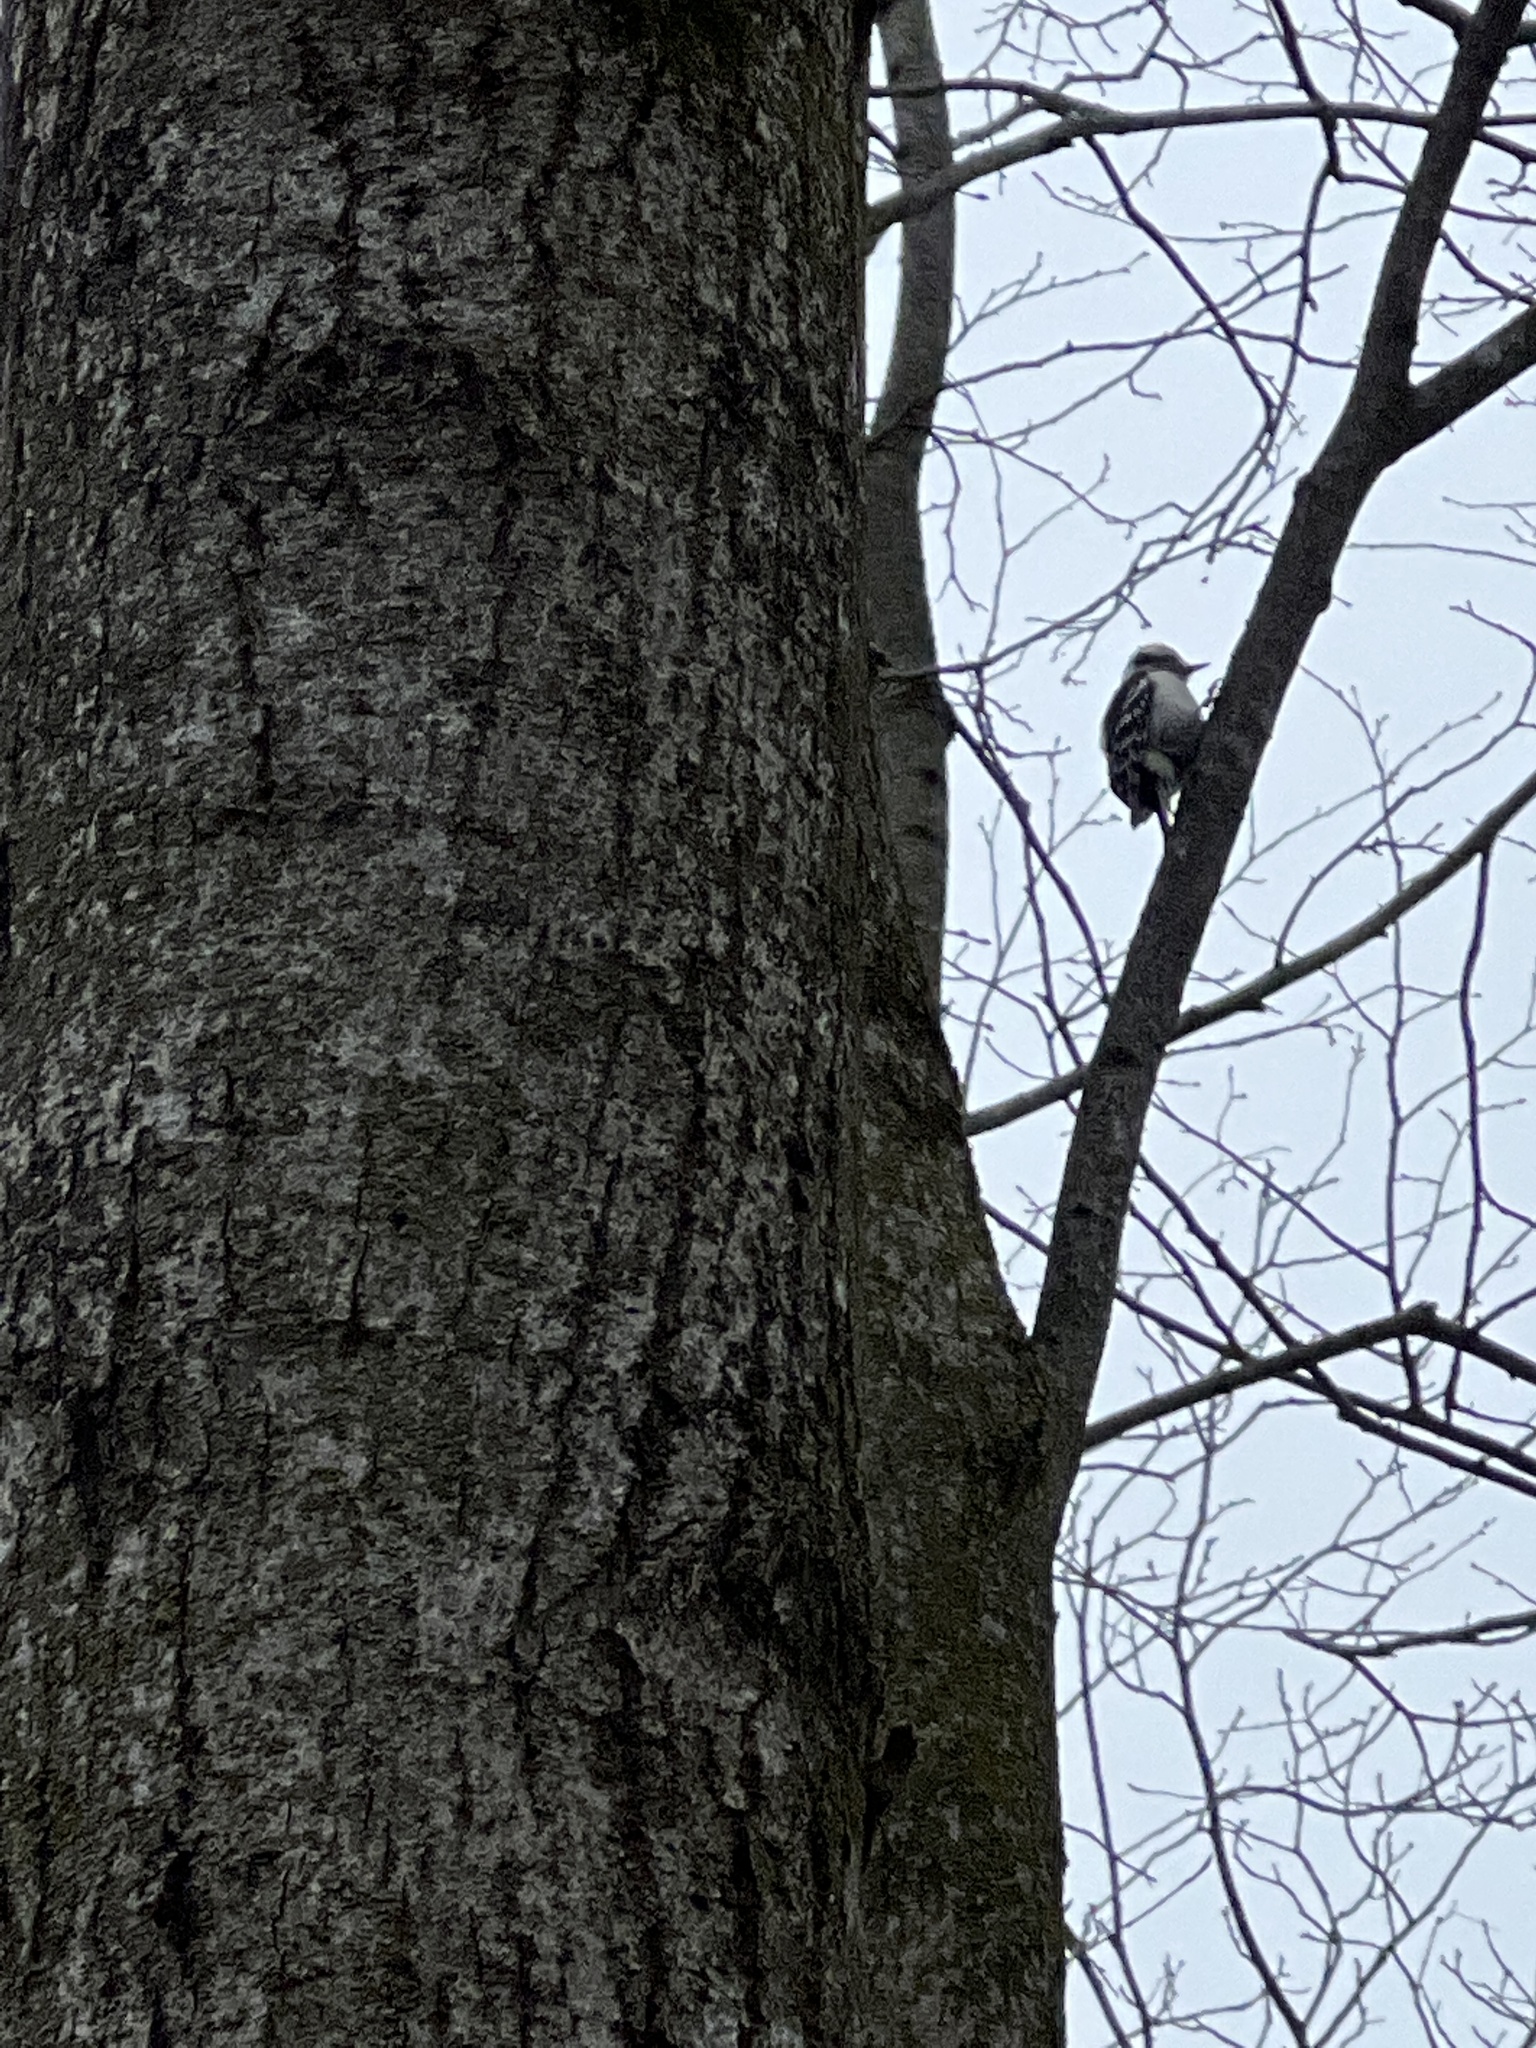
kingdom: Animalia
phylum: Chordata
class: Aves
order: Piciformes
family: Picidae
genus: Dryobates
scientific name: Dryobates pubescens
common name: Downy woodpecker
